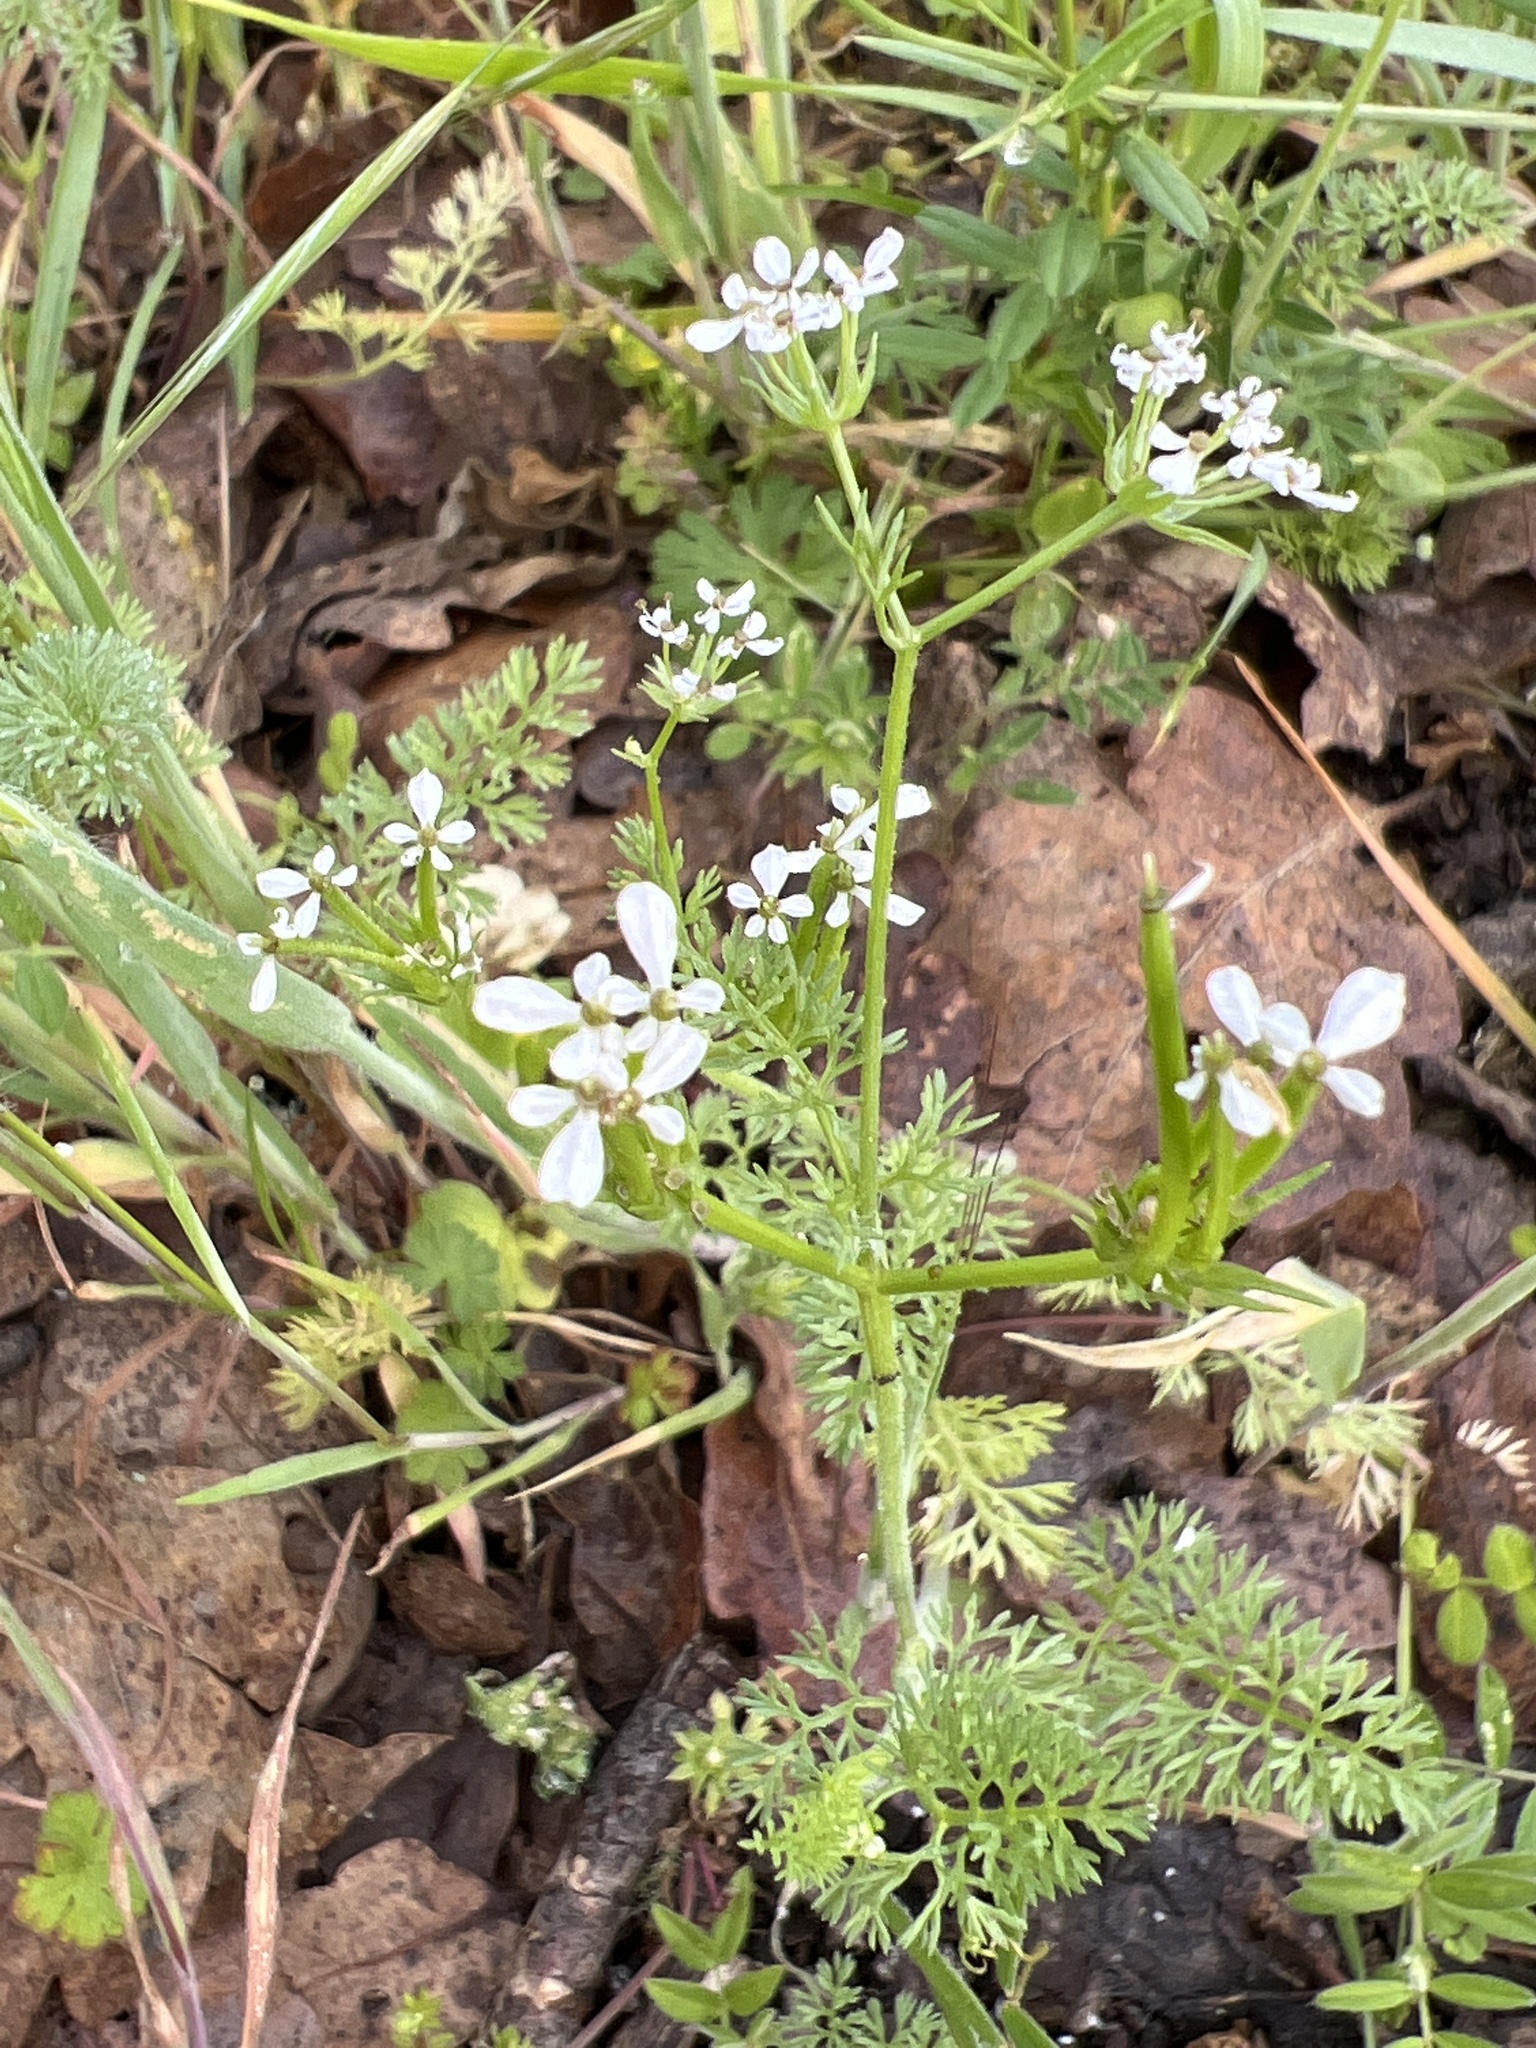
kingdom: Plantae
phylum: Tracheophyta
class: Magnoliopsida
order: Apiales
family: Apiaceae
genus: Scandix
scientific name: Scandix pecten-veneris
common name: Shepherd's-needle
